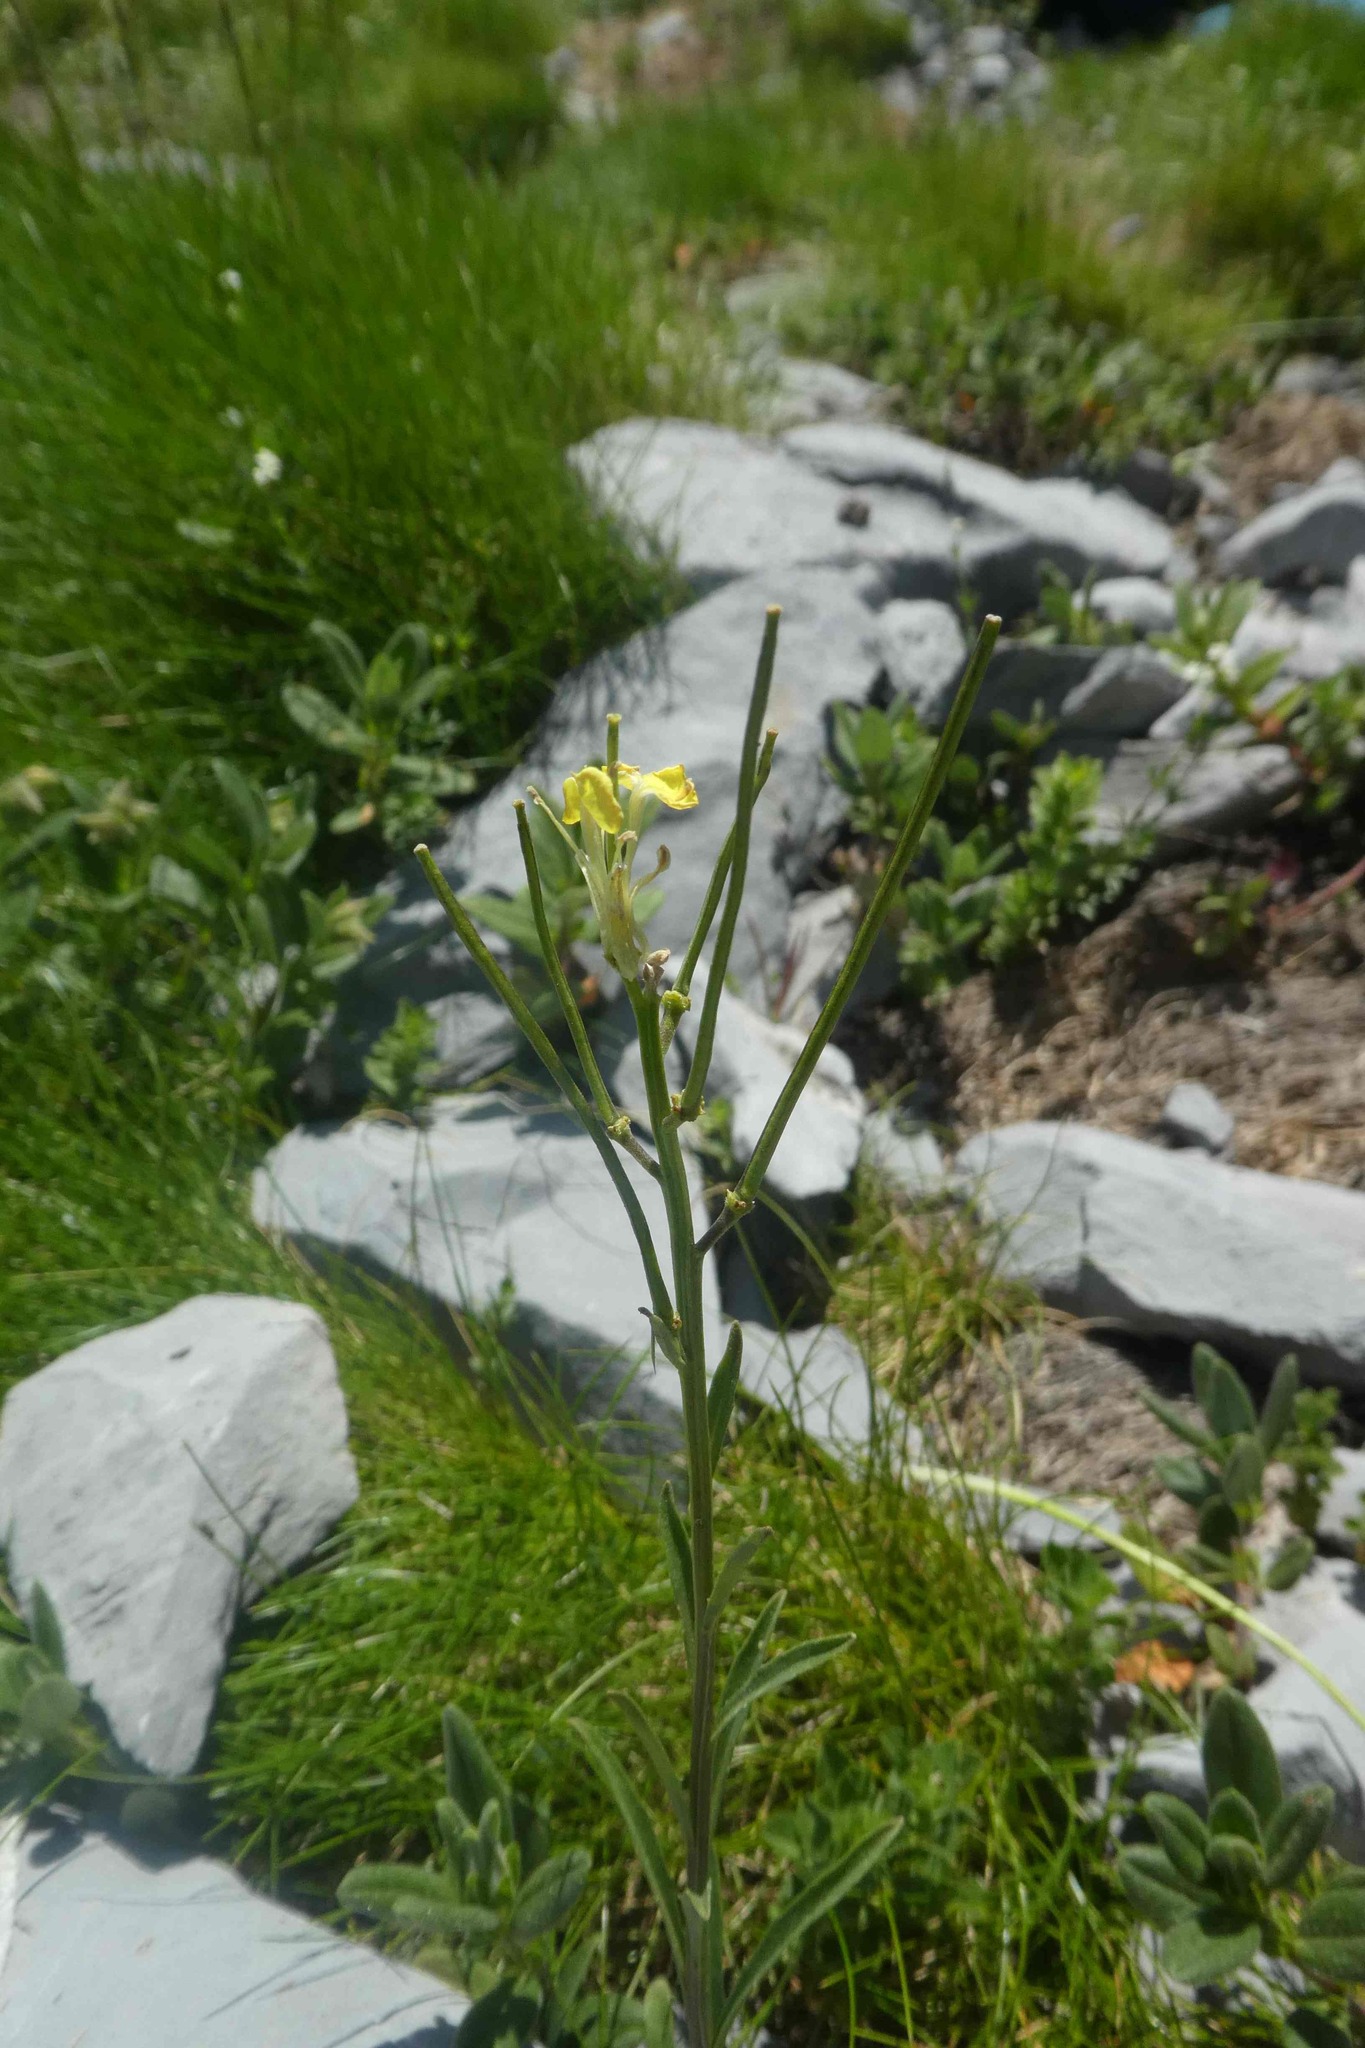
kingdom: Plantae
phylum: Tracheophyta
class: Magnoliopsida
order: Brassicales
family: Brassicaceae
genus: Erysimum
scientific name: Erysimum seipkae
